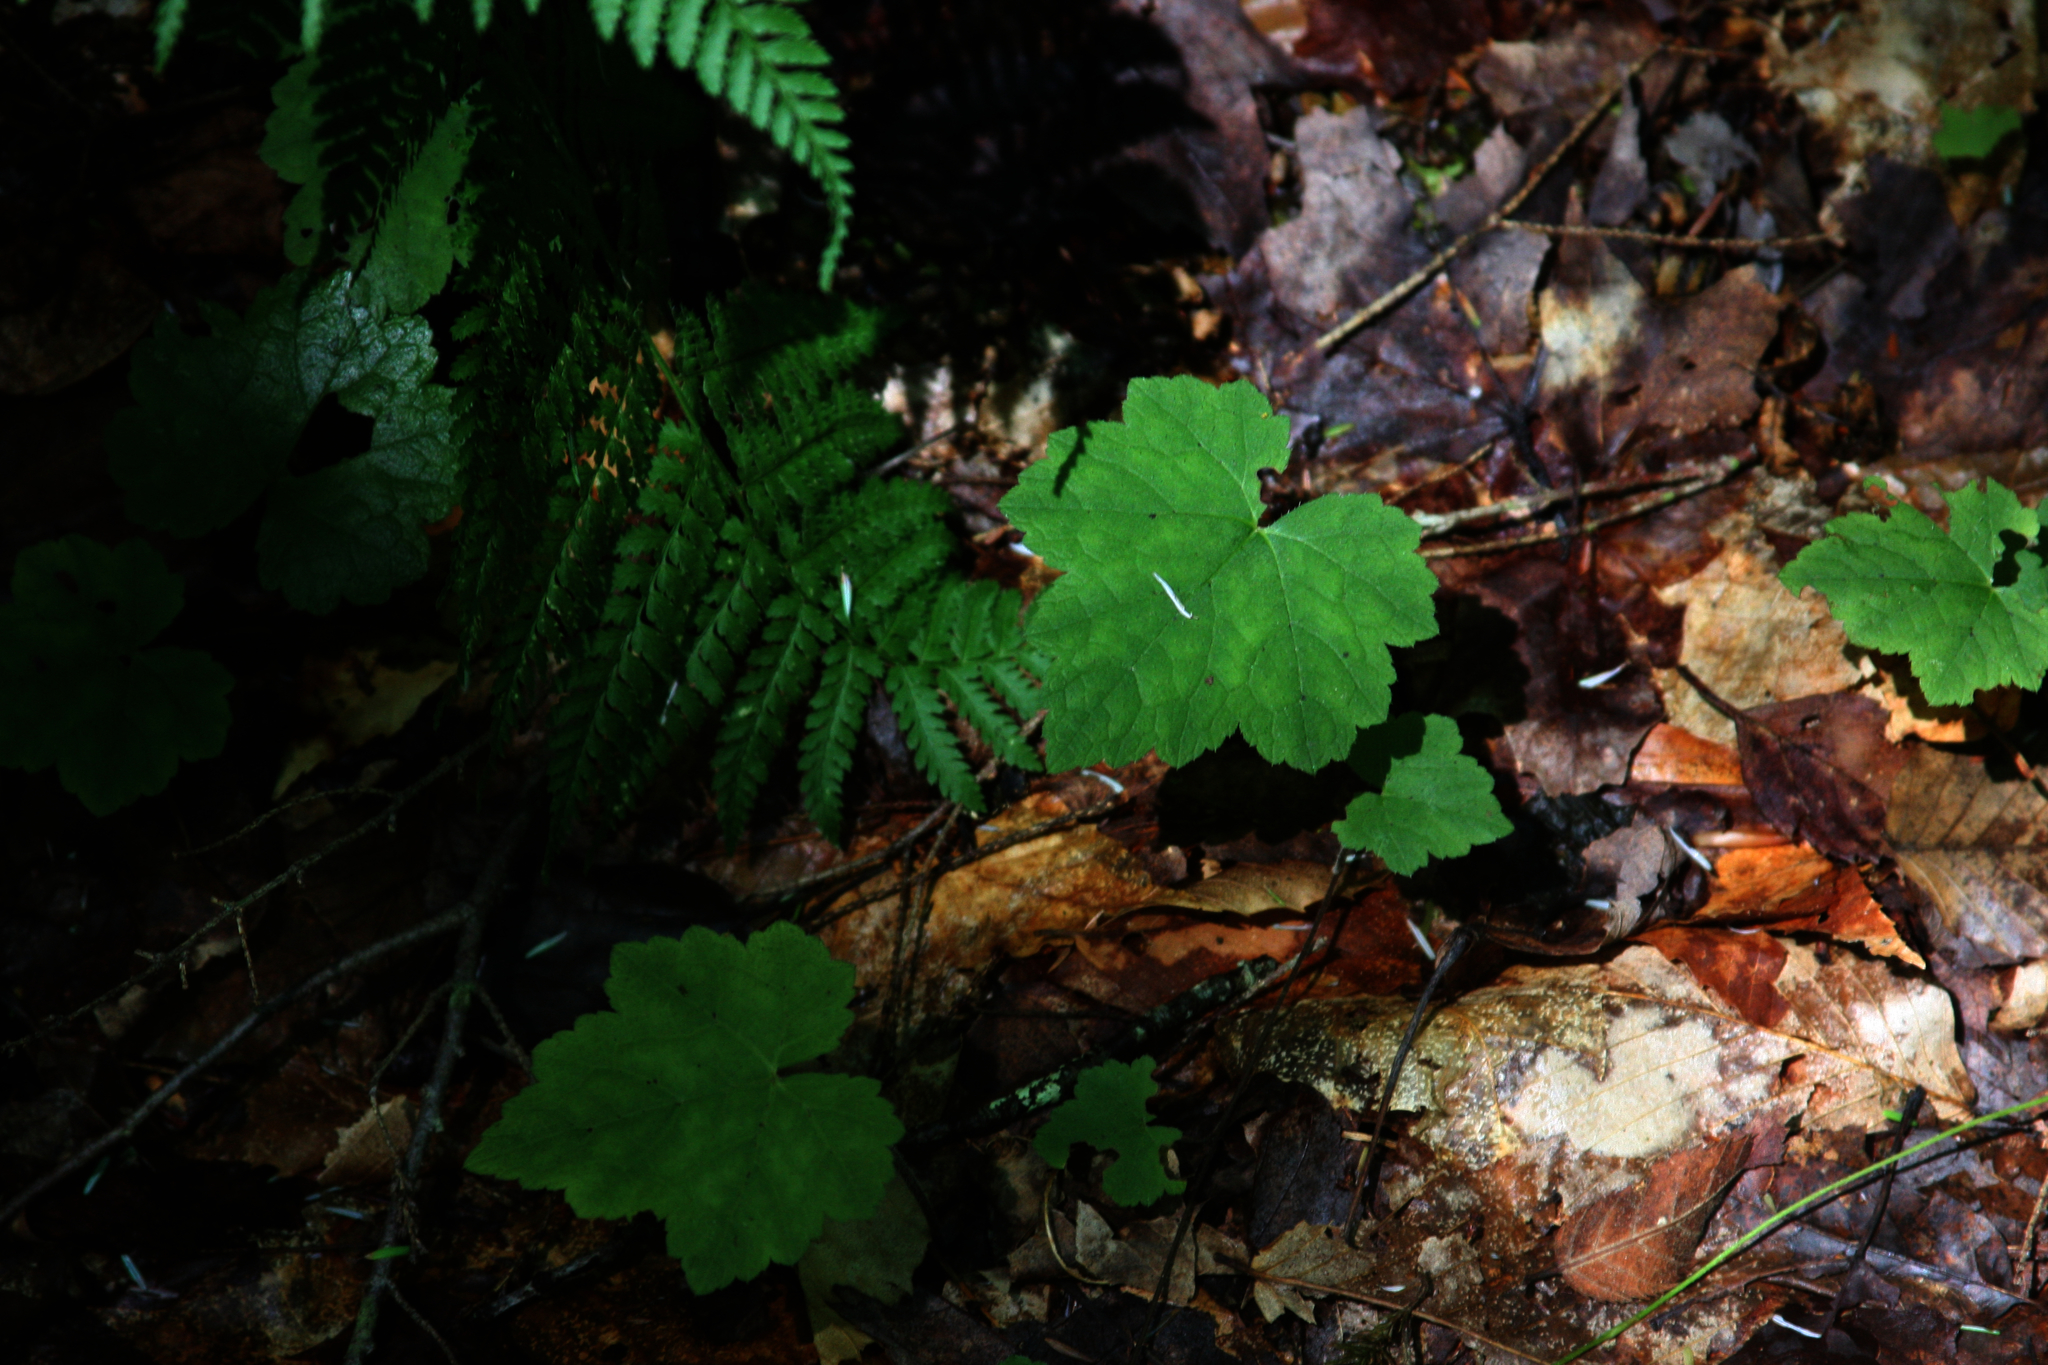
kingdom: Plantae
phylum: Tracheophyta
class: Magnoliopsida
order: Saxifragales
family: Saxifragaceae
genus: Tiarella
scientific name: Tiarella stolonifera
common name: Stoloniferous foamflower
